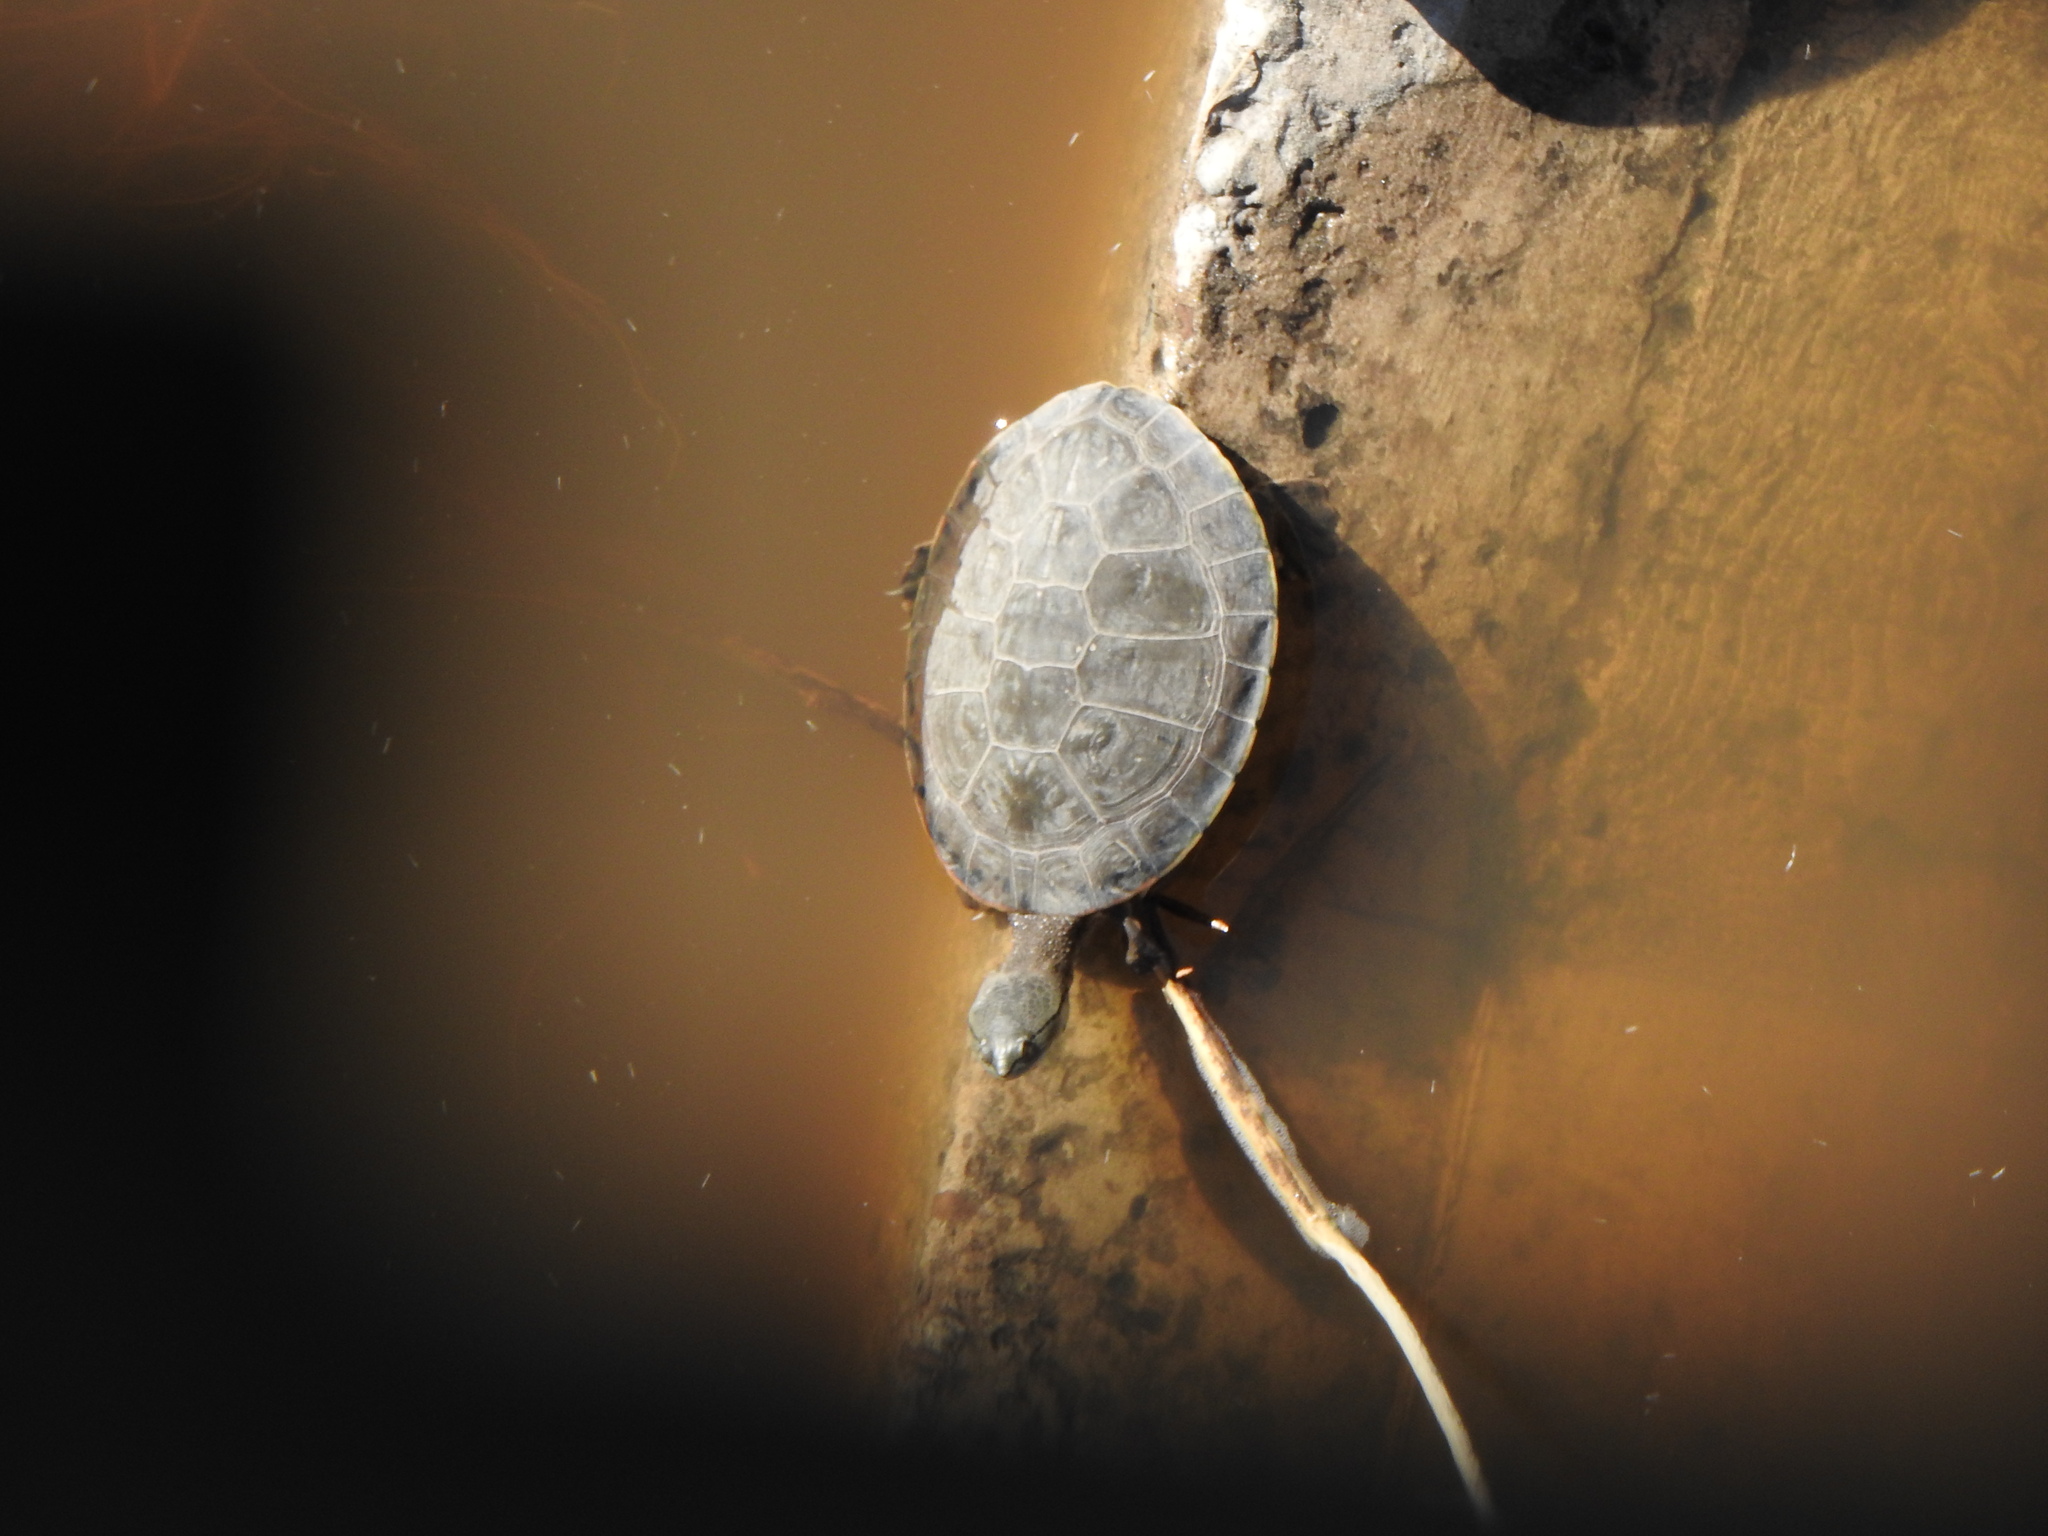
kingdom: Animalia
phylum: Chordata
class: Testudines
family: Chelidae
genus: Phrynops
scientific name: Phrynops hilarii
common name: Side-necked turtle of saint hillaire
